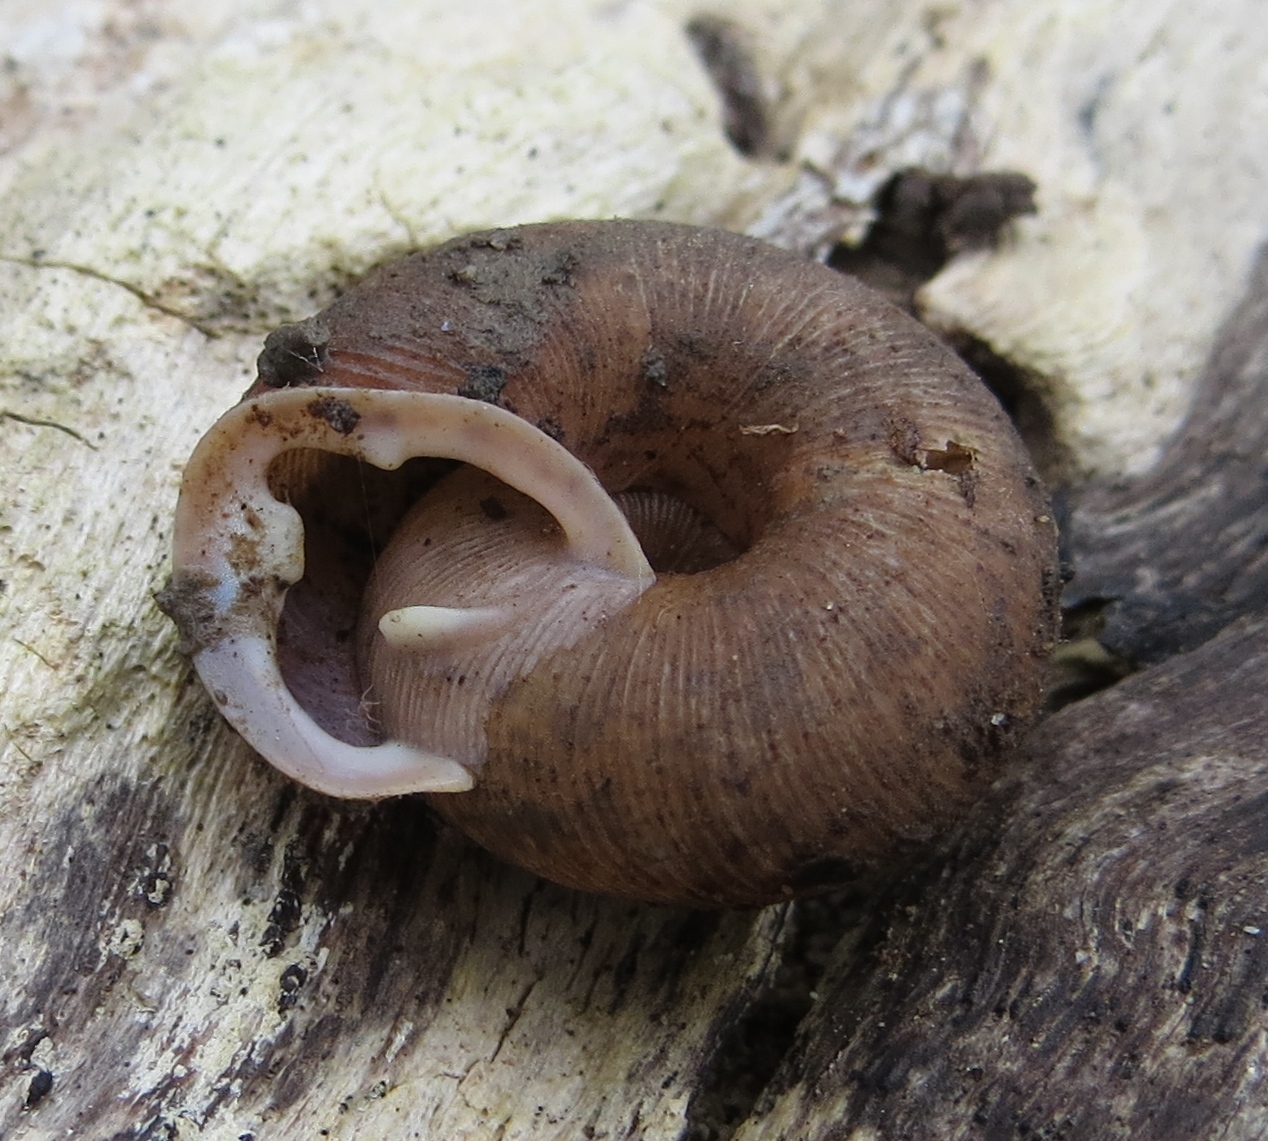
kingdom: Animalia
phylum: Mollusca
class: Gastropoda
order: Stylommatophora
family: Polygyridae
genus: Triodopsis
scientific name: Triodopsis vulgata
